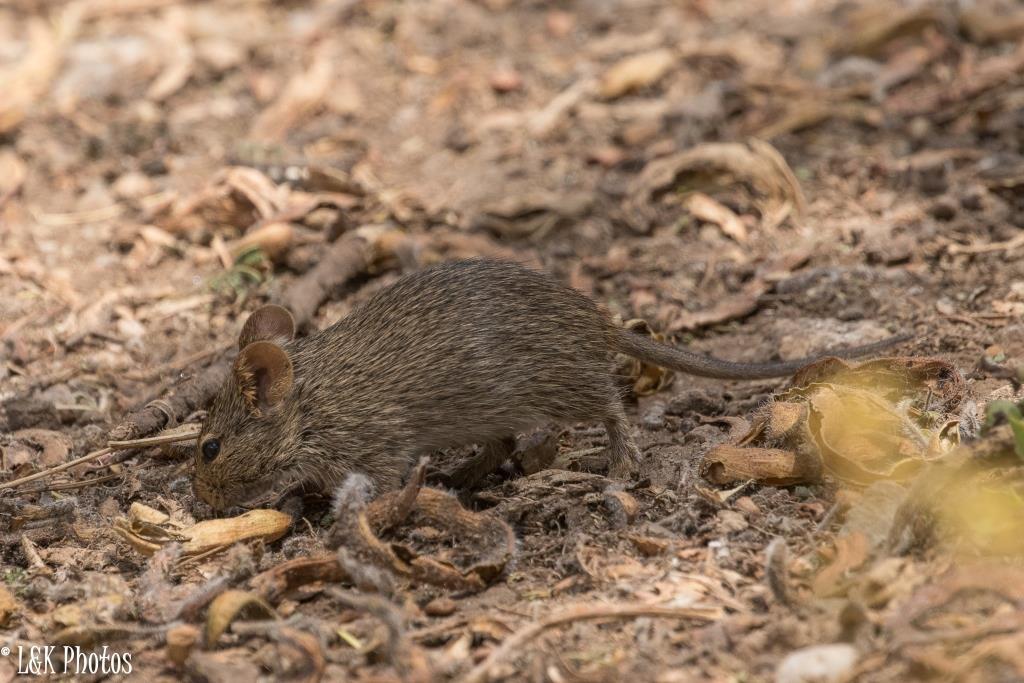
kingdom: Animalia
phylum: Chordata
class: Mammalia
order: Rodentia
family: Muridae
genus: Arvicanthis
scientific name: Arvicanthis niloticus
